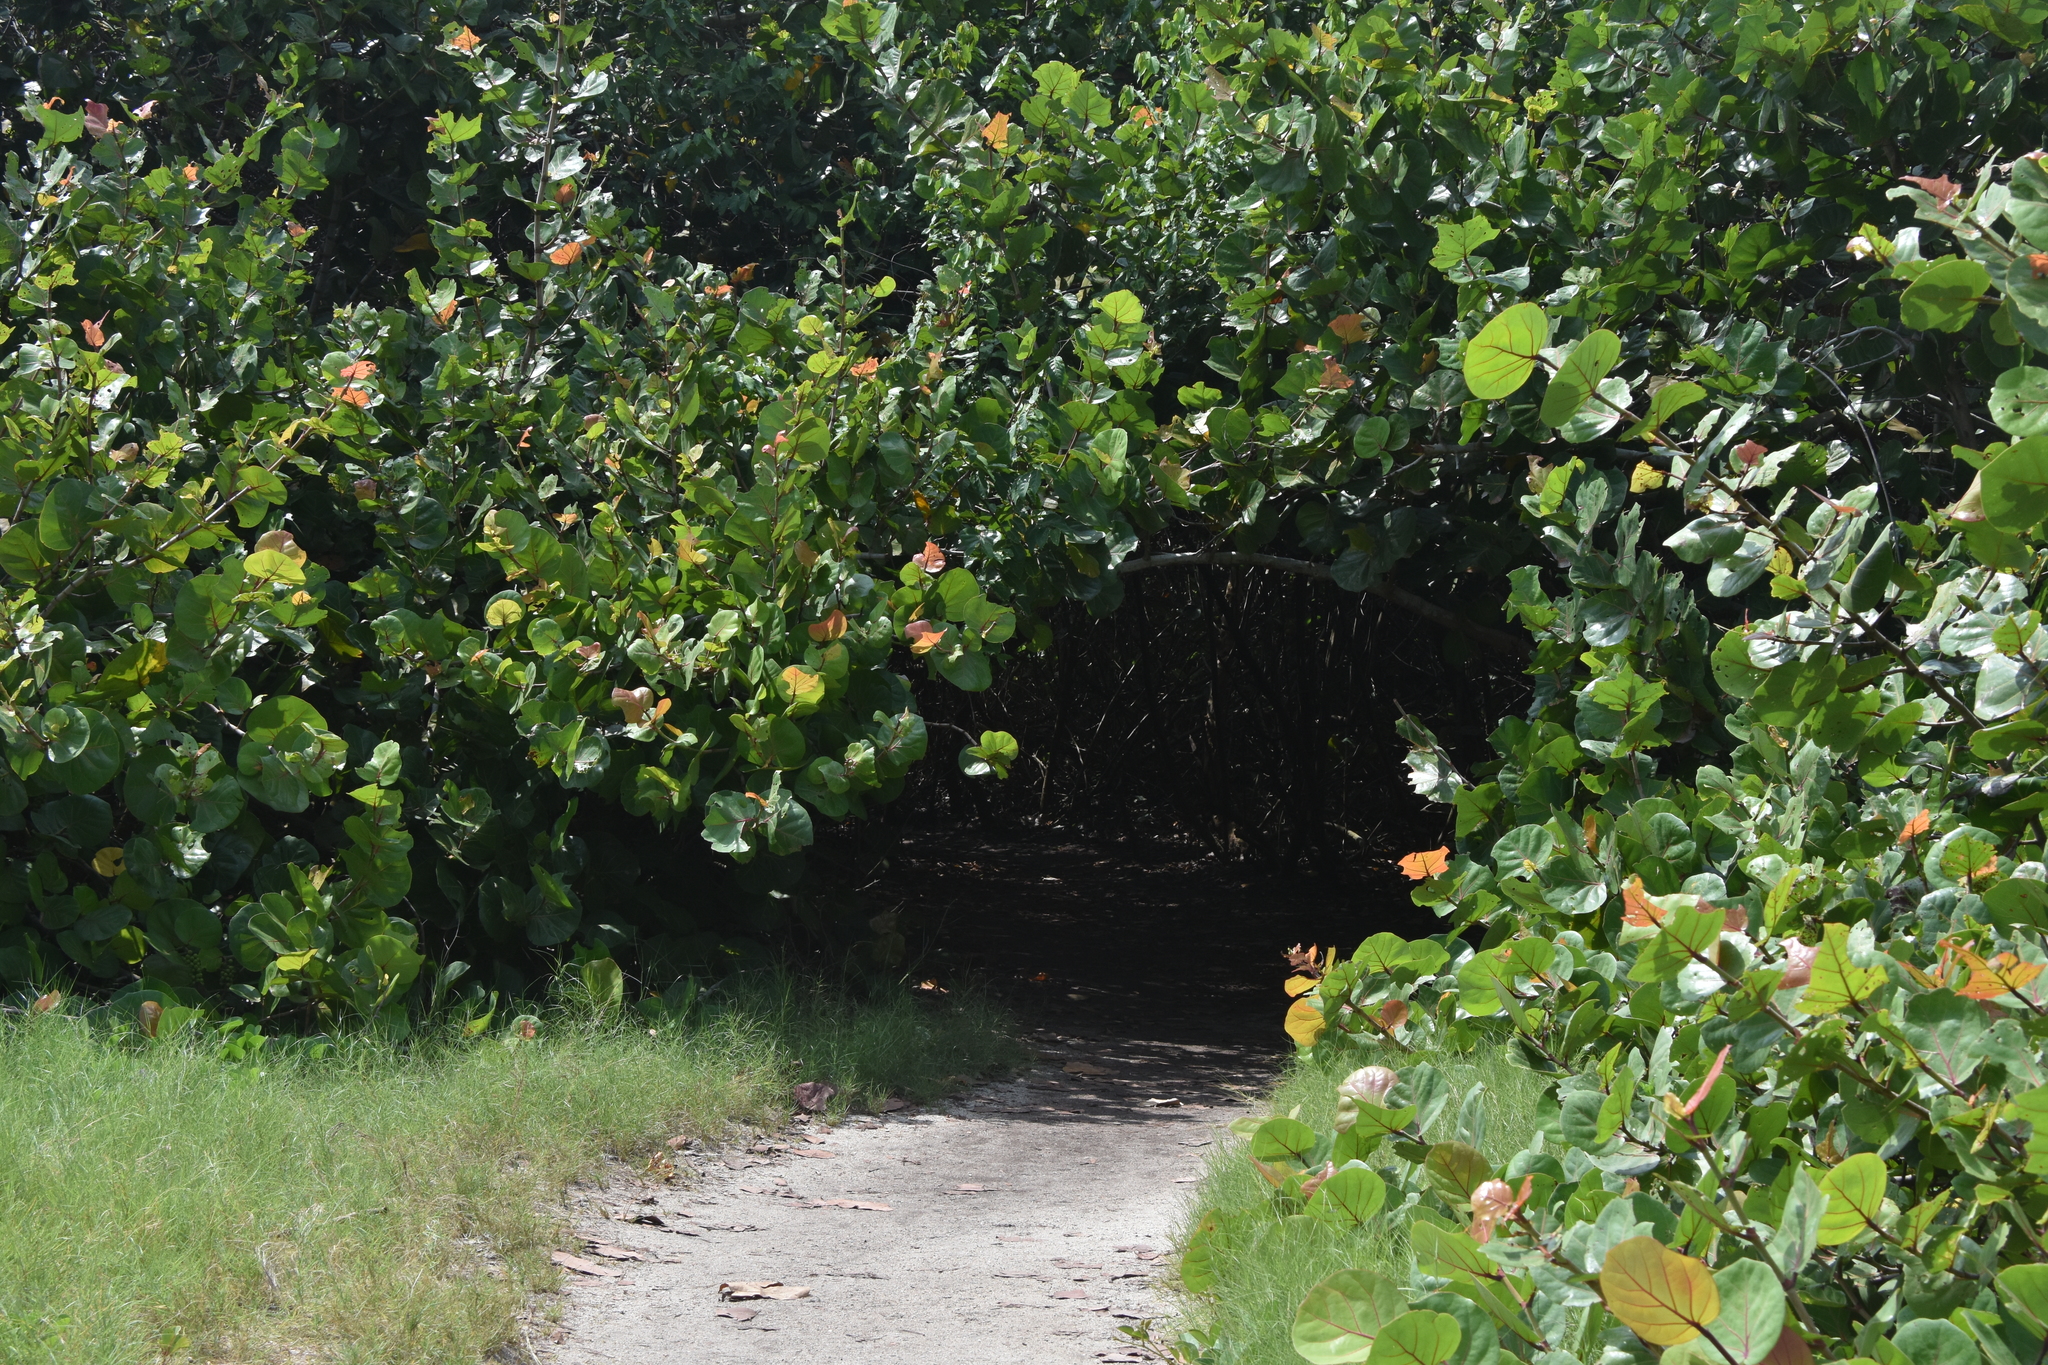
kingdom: Plantae
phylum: Tracheophyta
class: Magnoliopsida
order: Caryophyllales
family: Polygonaceae
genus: Coccoloba
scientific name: Coccoloba uvifera
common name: Seagrape
